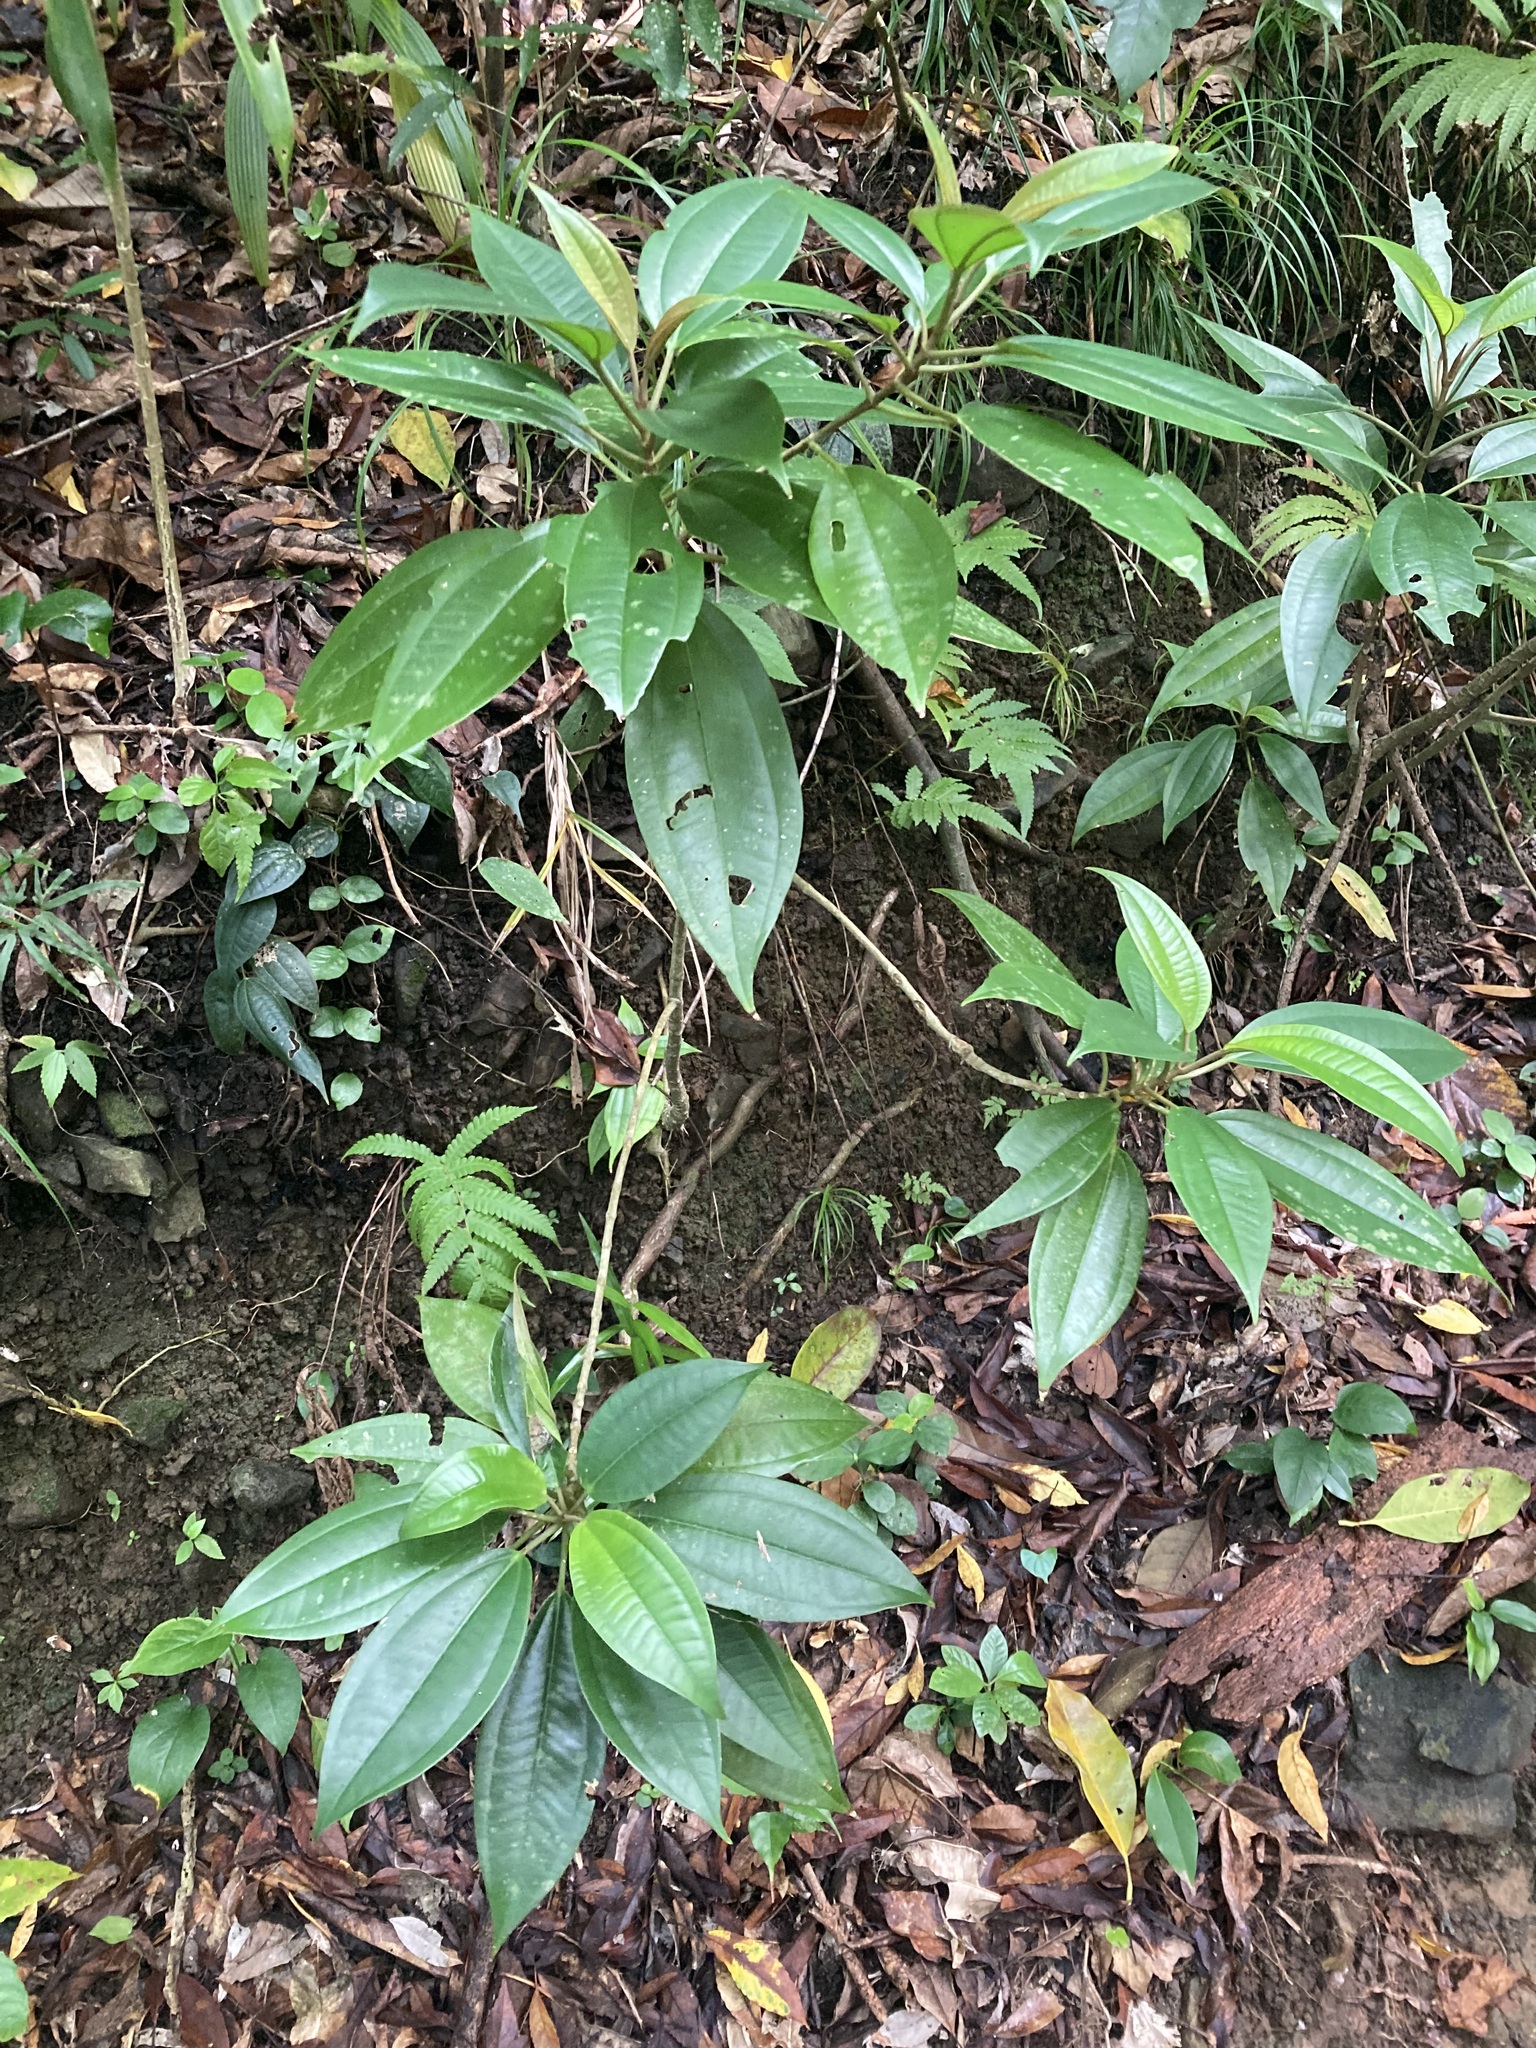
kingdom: Plantae
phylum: Tracheophyta
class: Magnoliopsida
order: Myrtales
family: Melastomataceae
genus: Medinilla
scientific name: Medinilla hayatana
